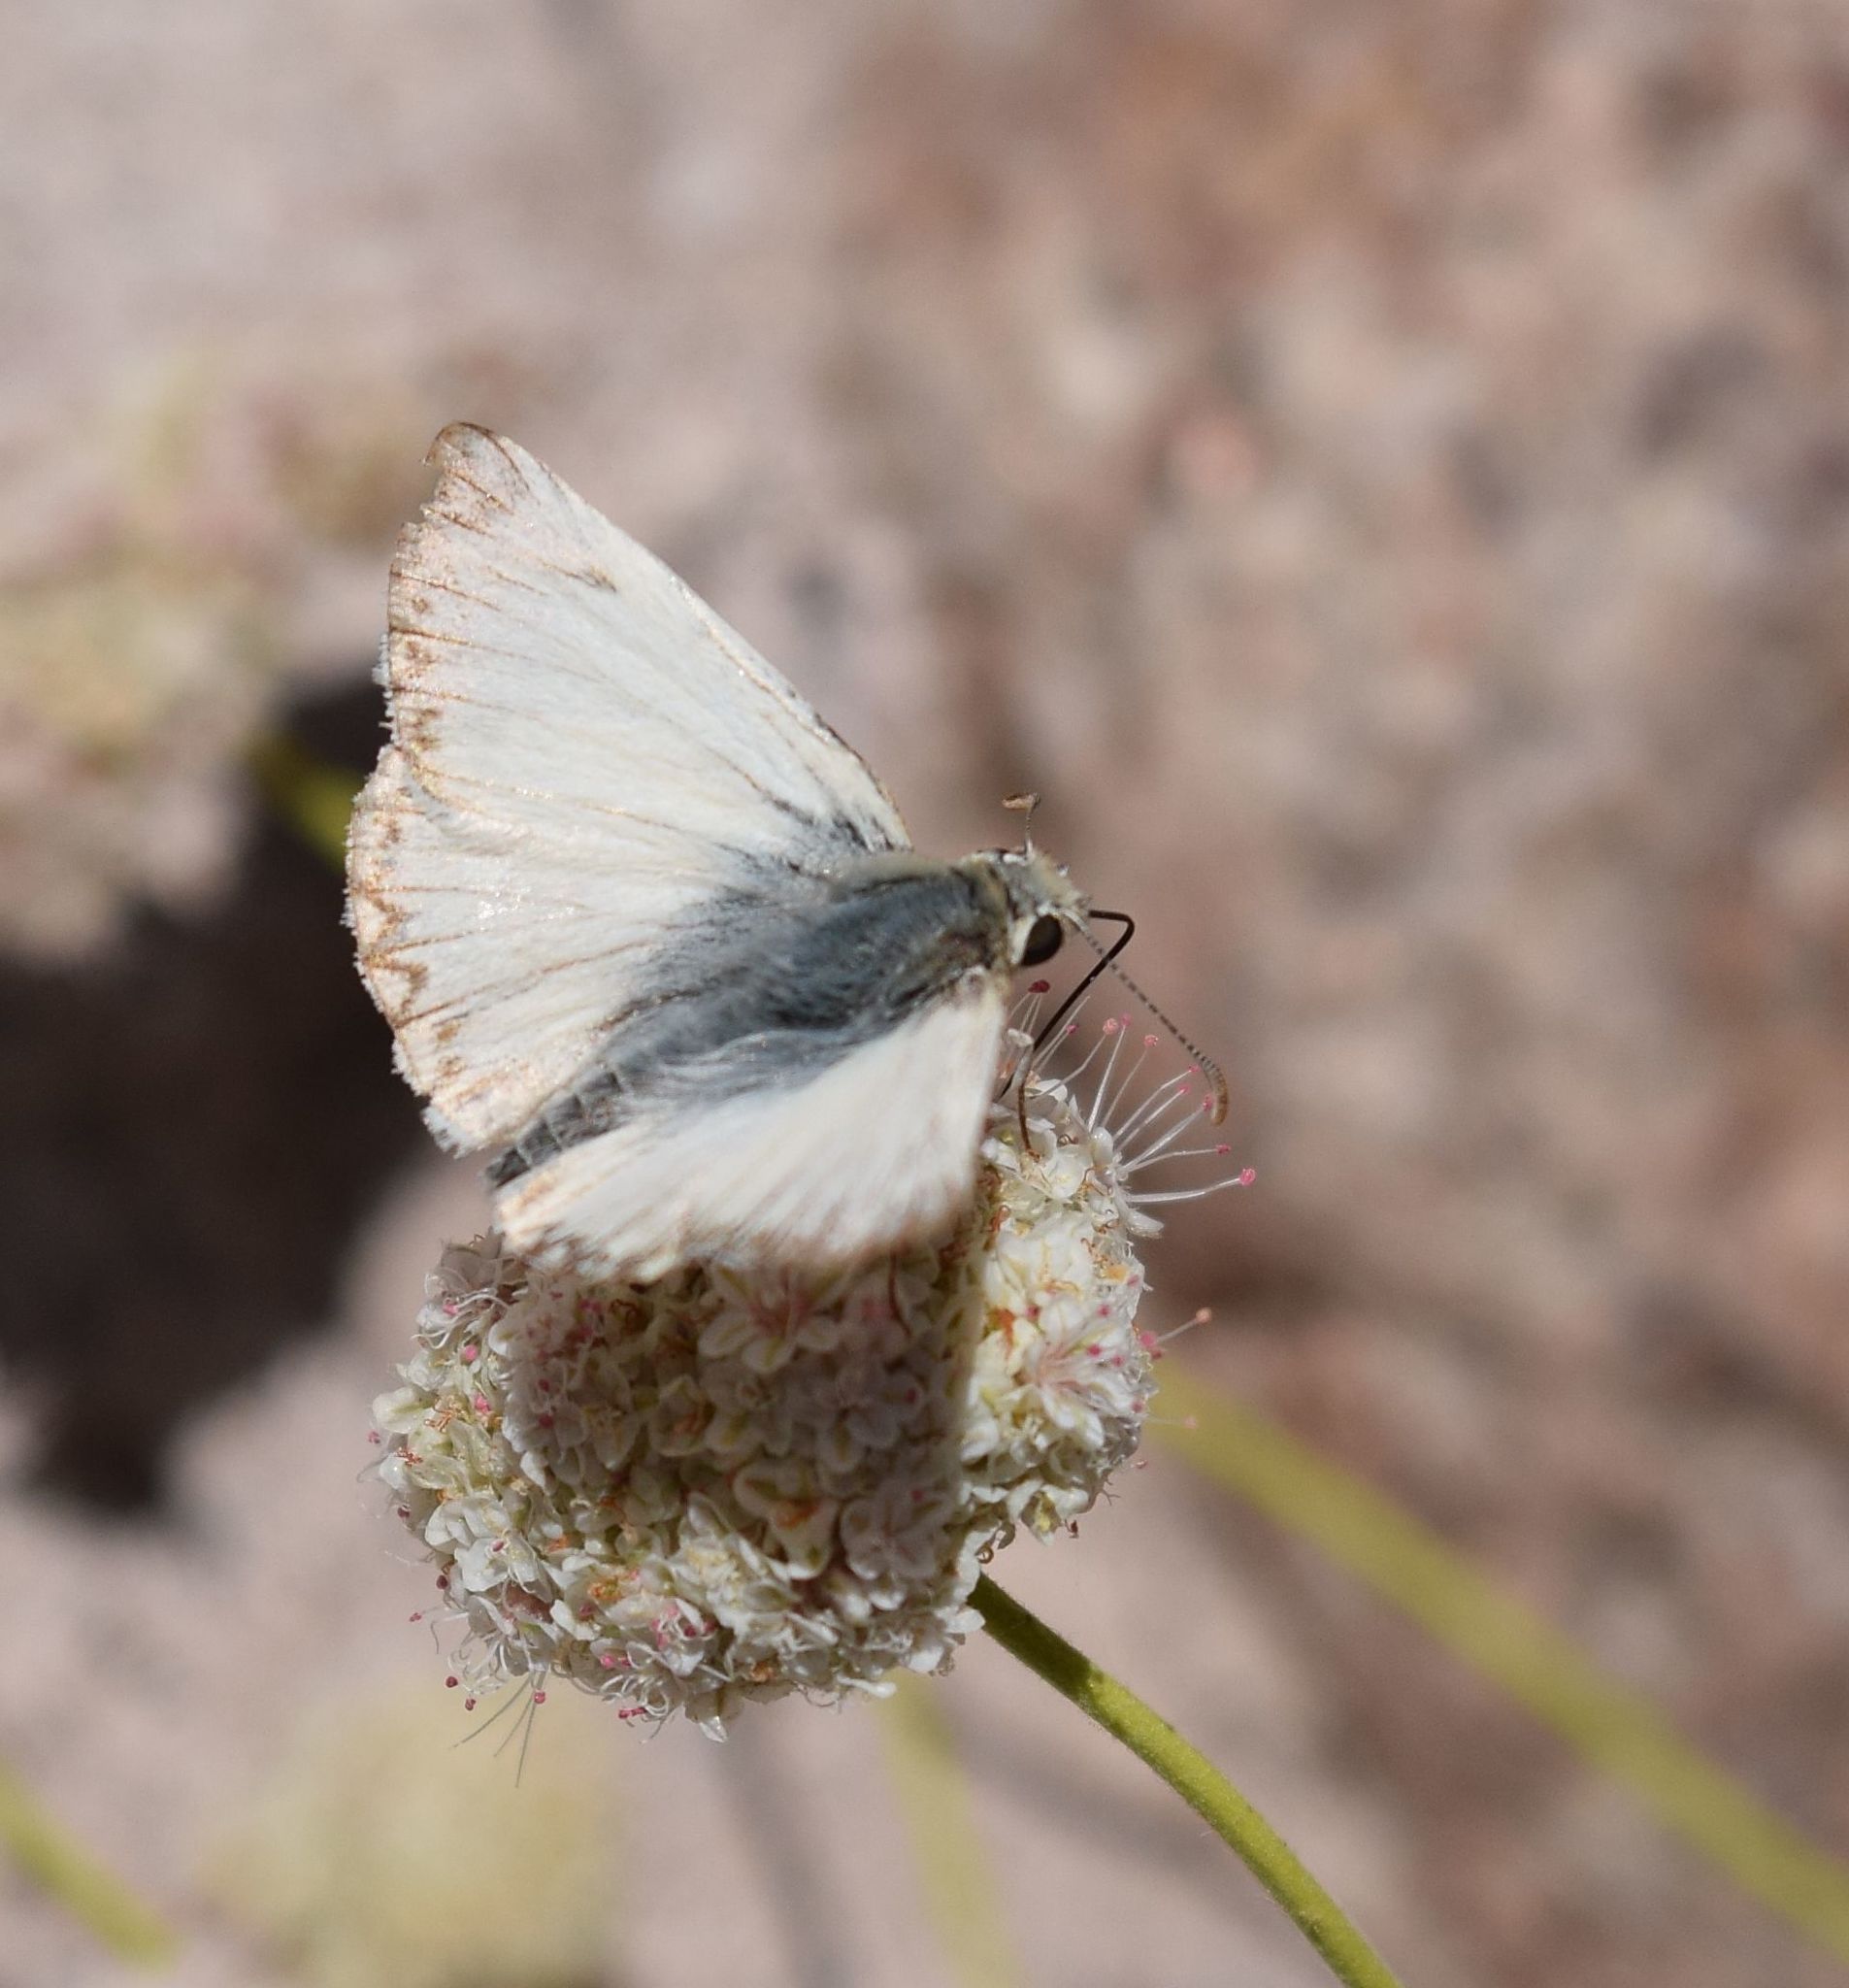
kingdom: Animalia
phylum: Arthropoda
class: Insecta
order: Lepidoptera
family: Hesperiidae
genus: Heliopetes
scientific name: Heliopetes ericetorum
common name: Northern white-skipper
